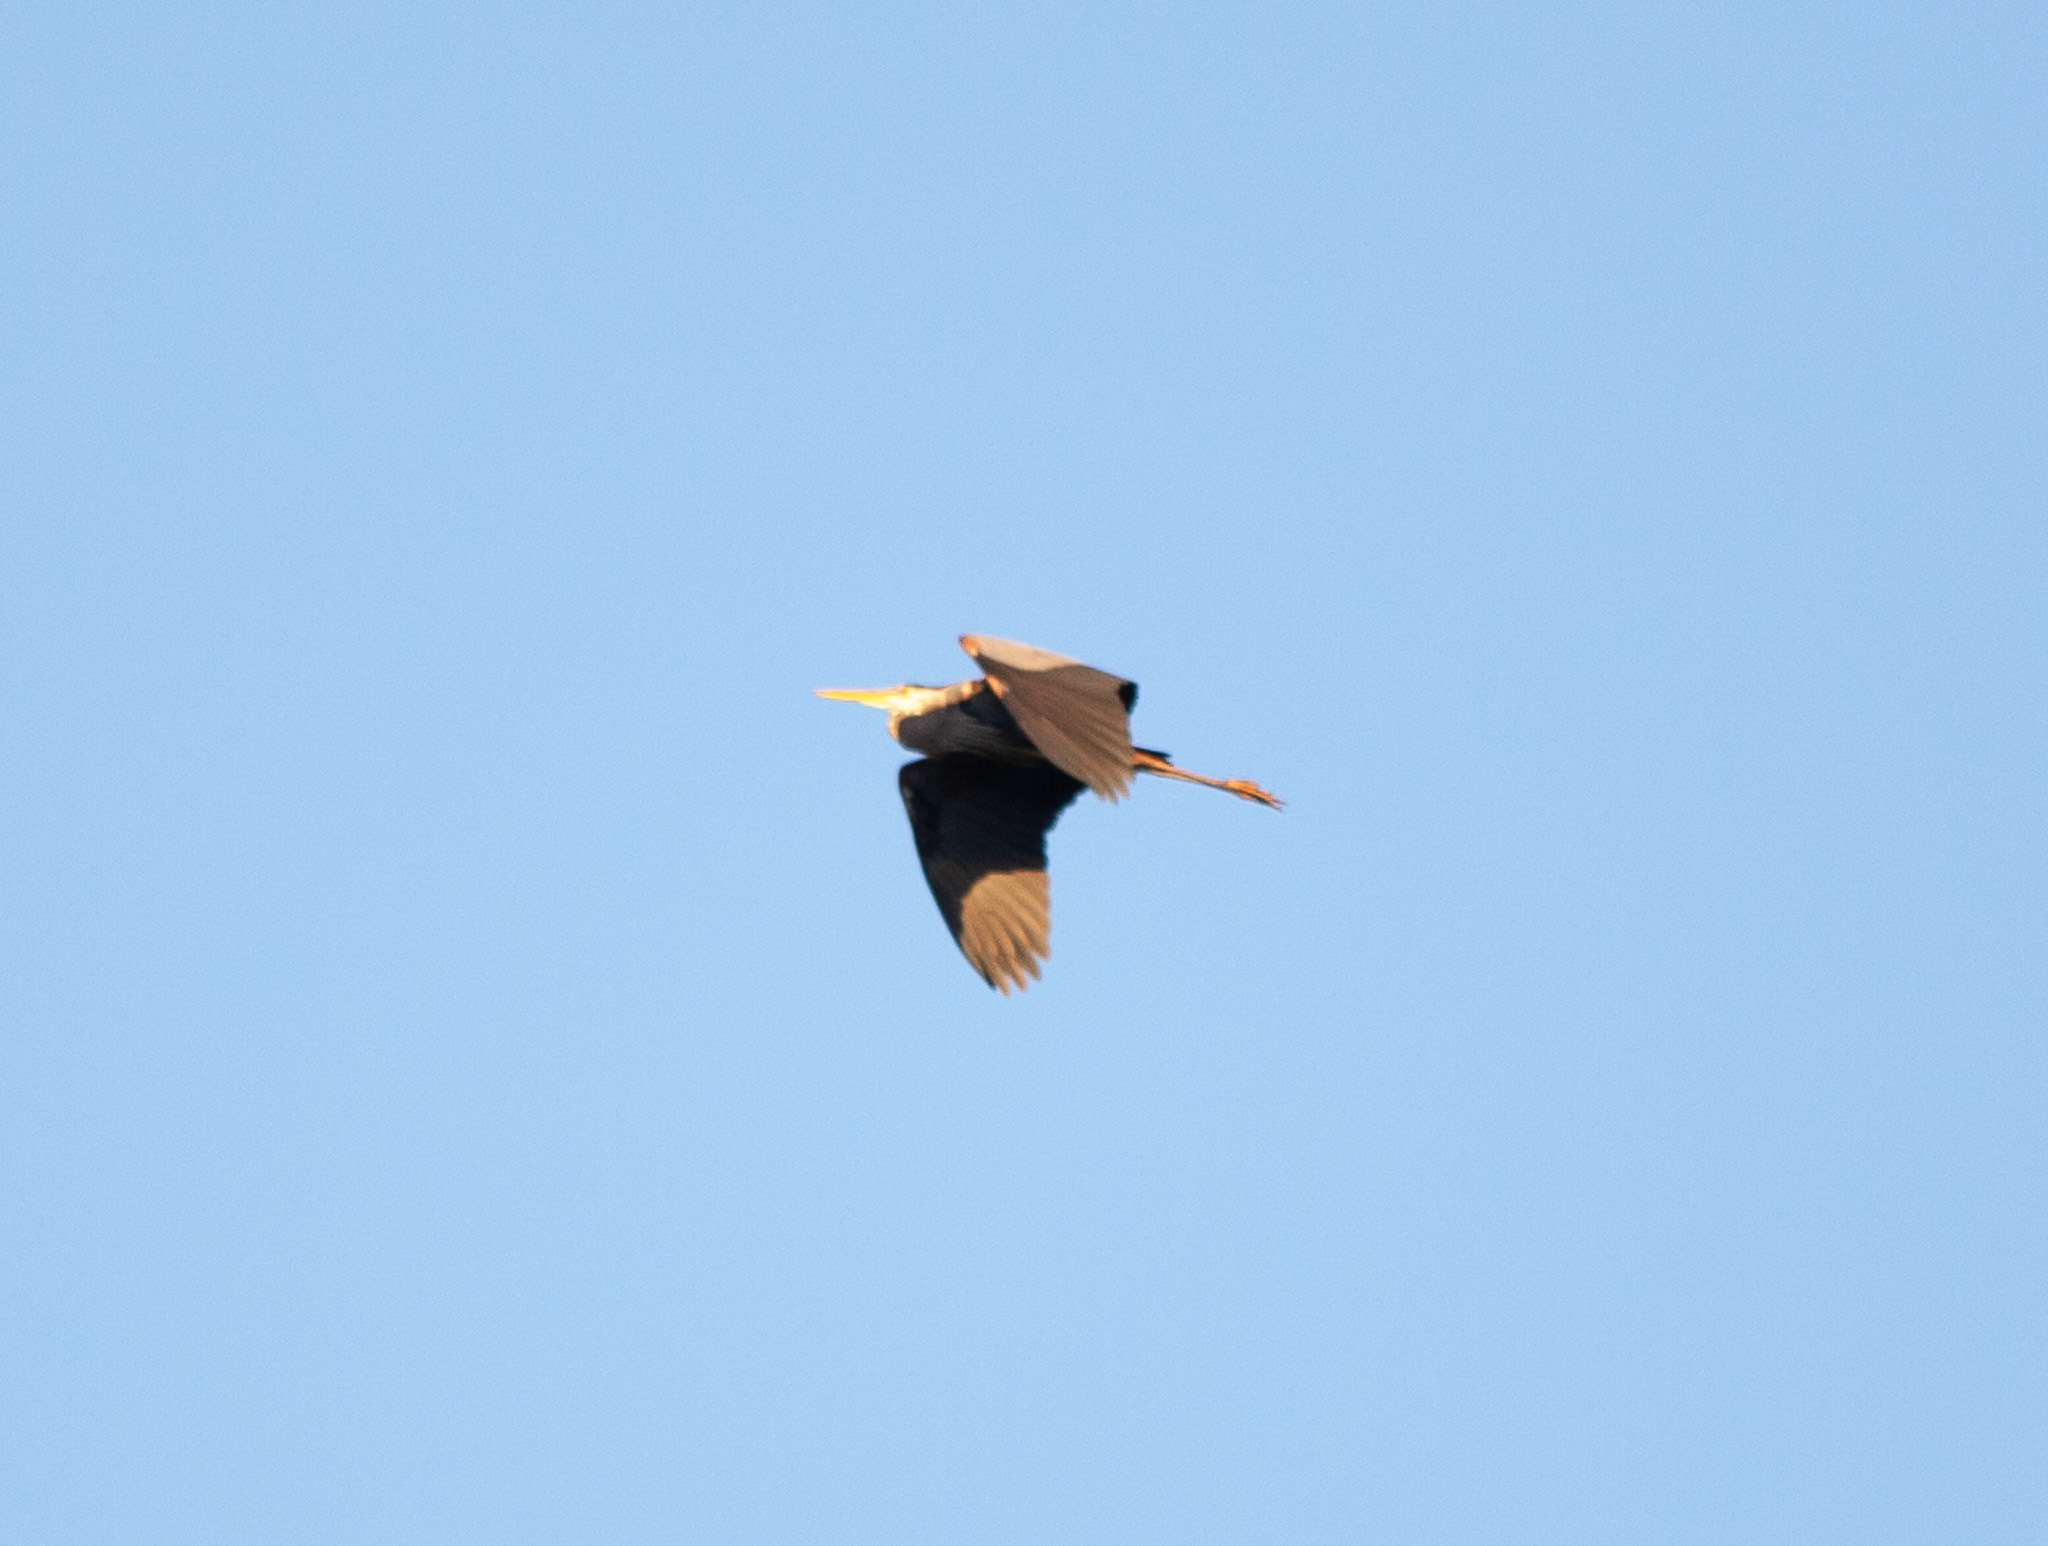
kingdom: Animalia
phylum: Chordata
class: Aves
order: Pelecaniformes
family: Ardeidae
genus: Ardea
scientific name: Ardea herodias
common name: Great blue heron
